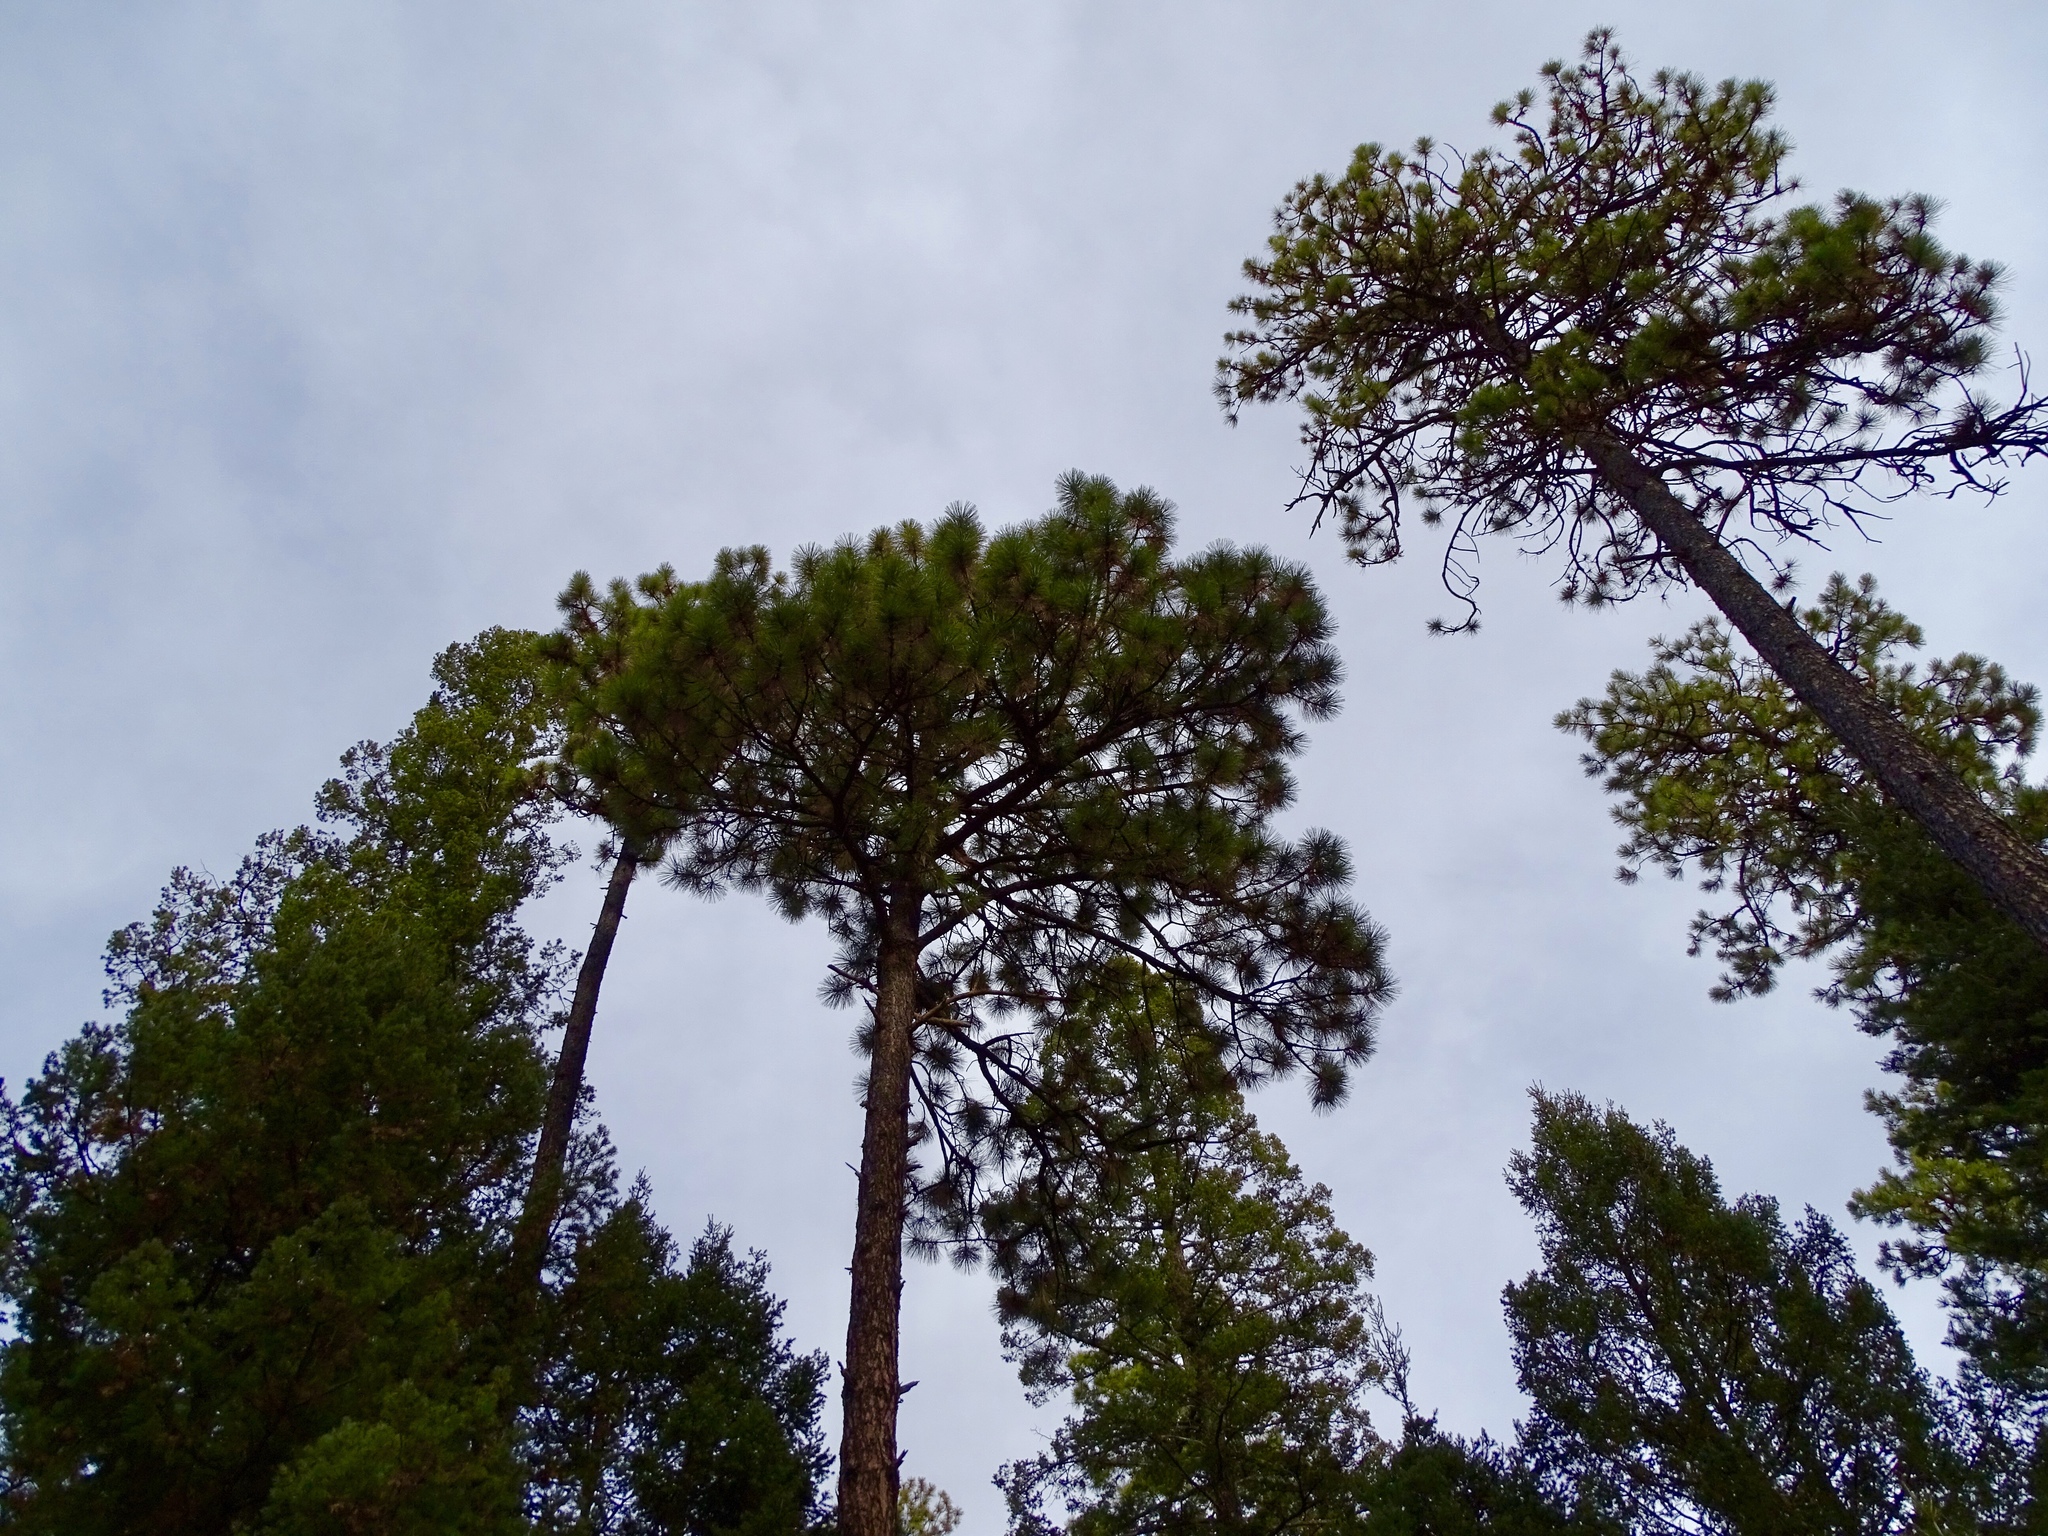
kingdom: Plantae
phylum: Tracheophyta
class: Pinopsida
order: Pinales
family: Pinaceae
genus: Pinus
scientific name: Pinus ponderosa
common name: Western yellow-pine
